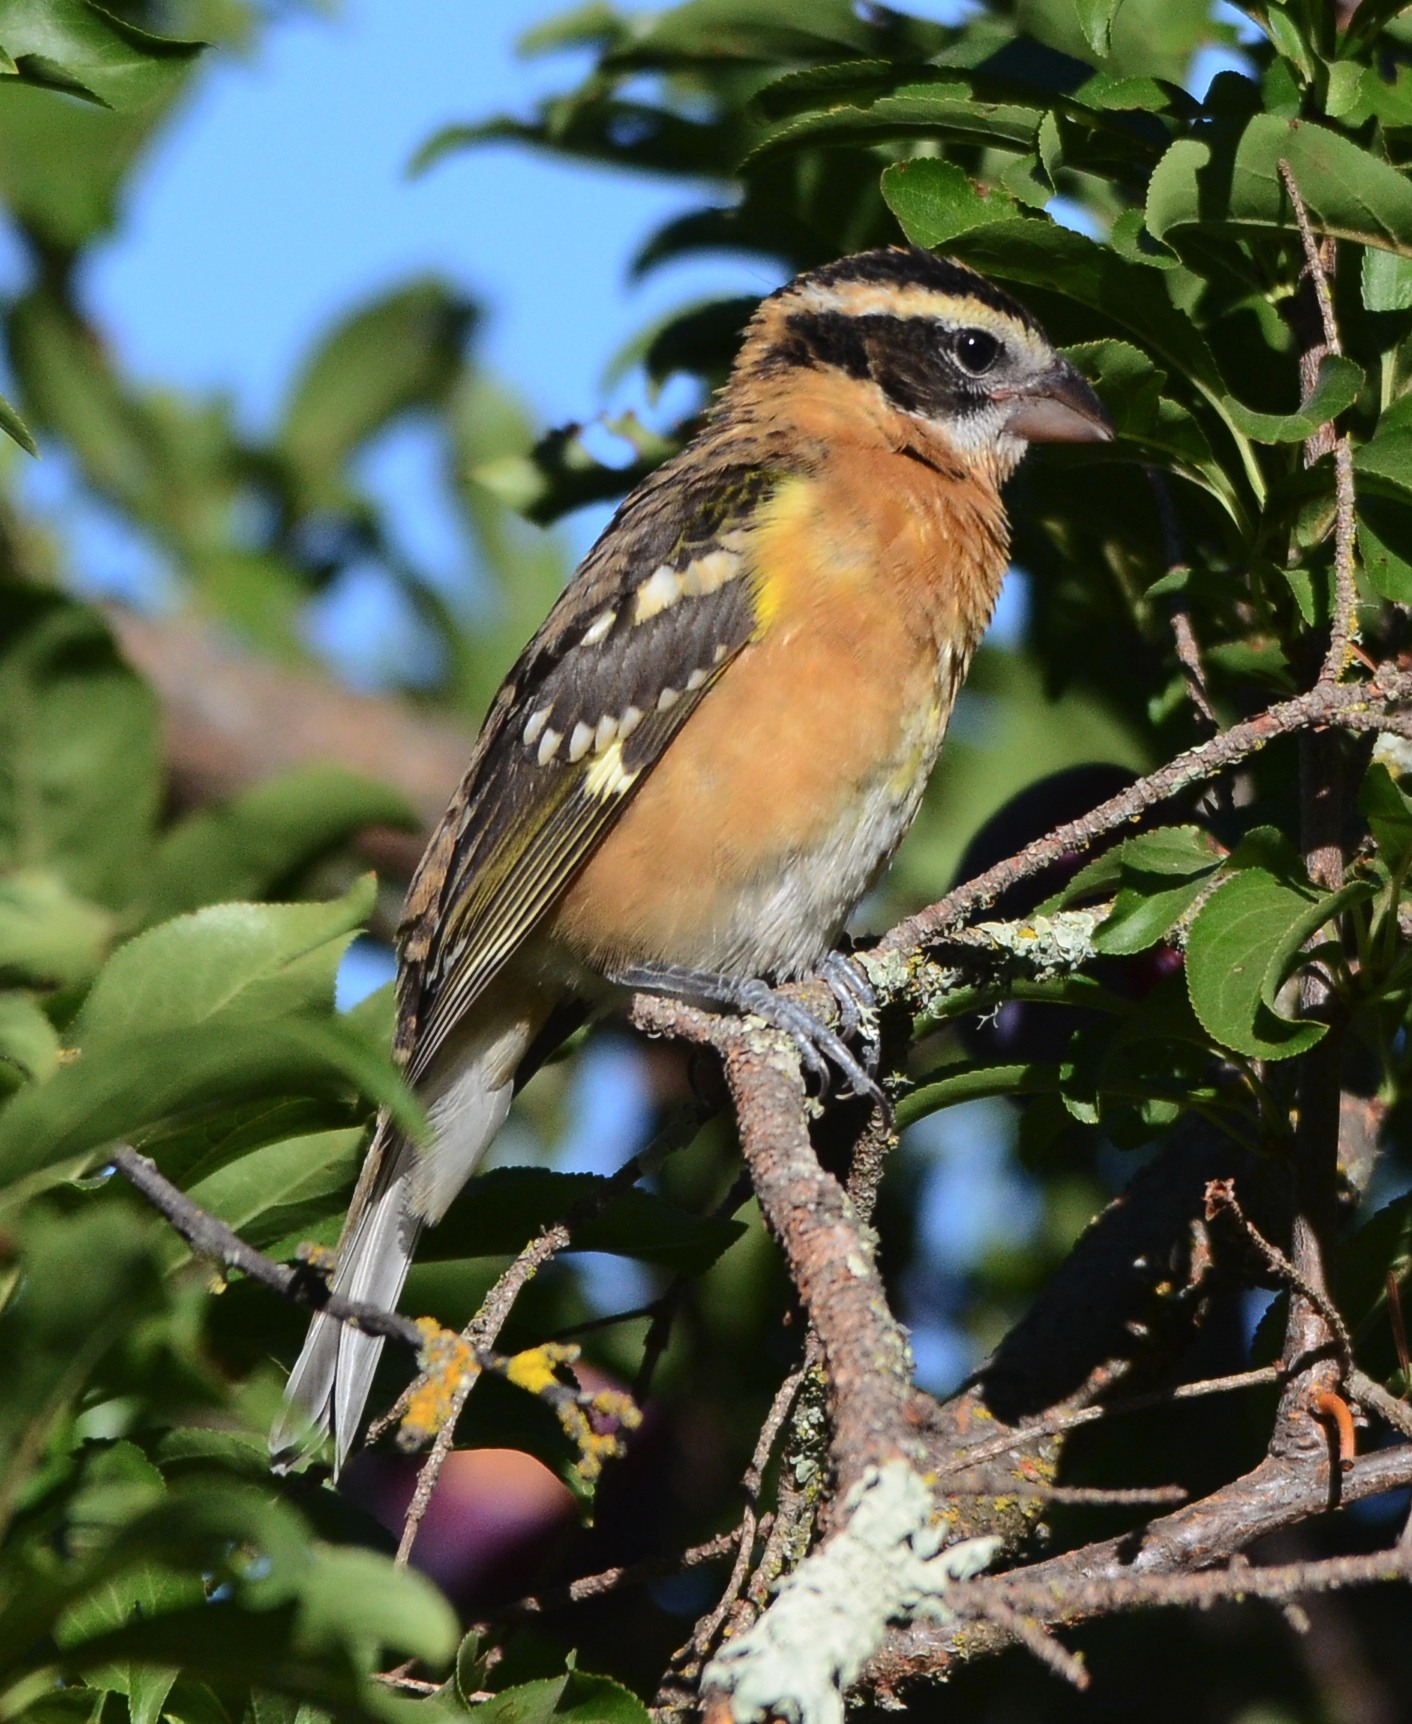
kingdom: Animalia
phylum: Chordata
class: Aves
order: Passeriformes
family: Cardinalidae
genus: Pheucticus
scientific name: Pheucticus melanocephalus
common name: Black-headed grosbeak
